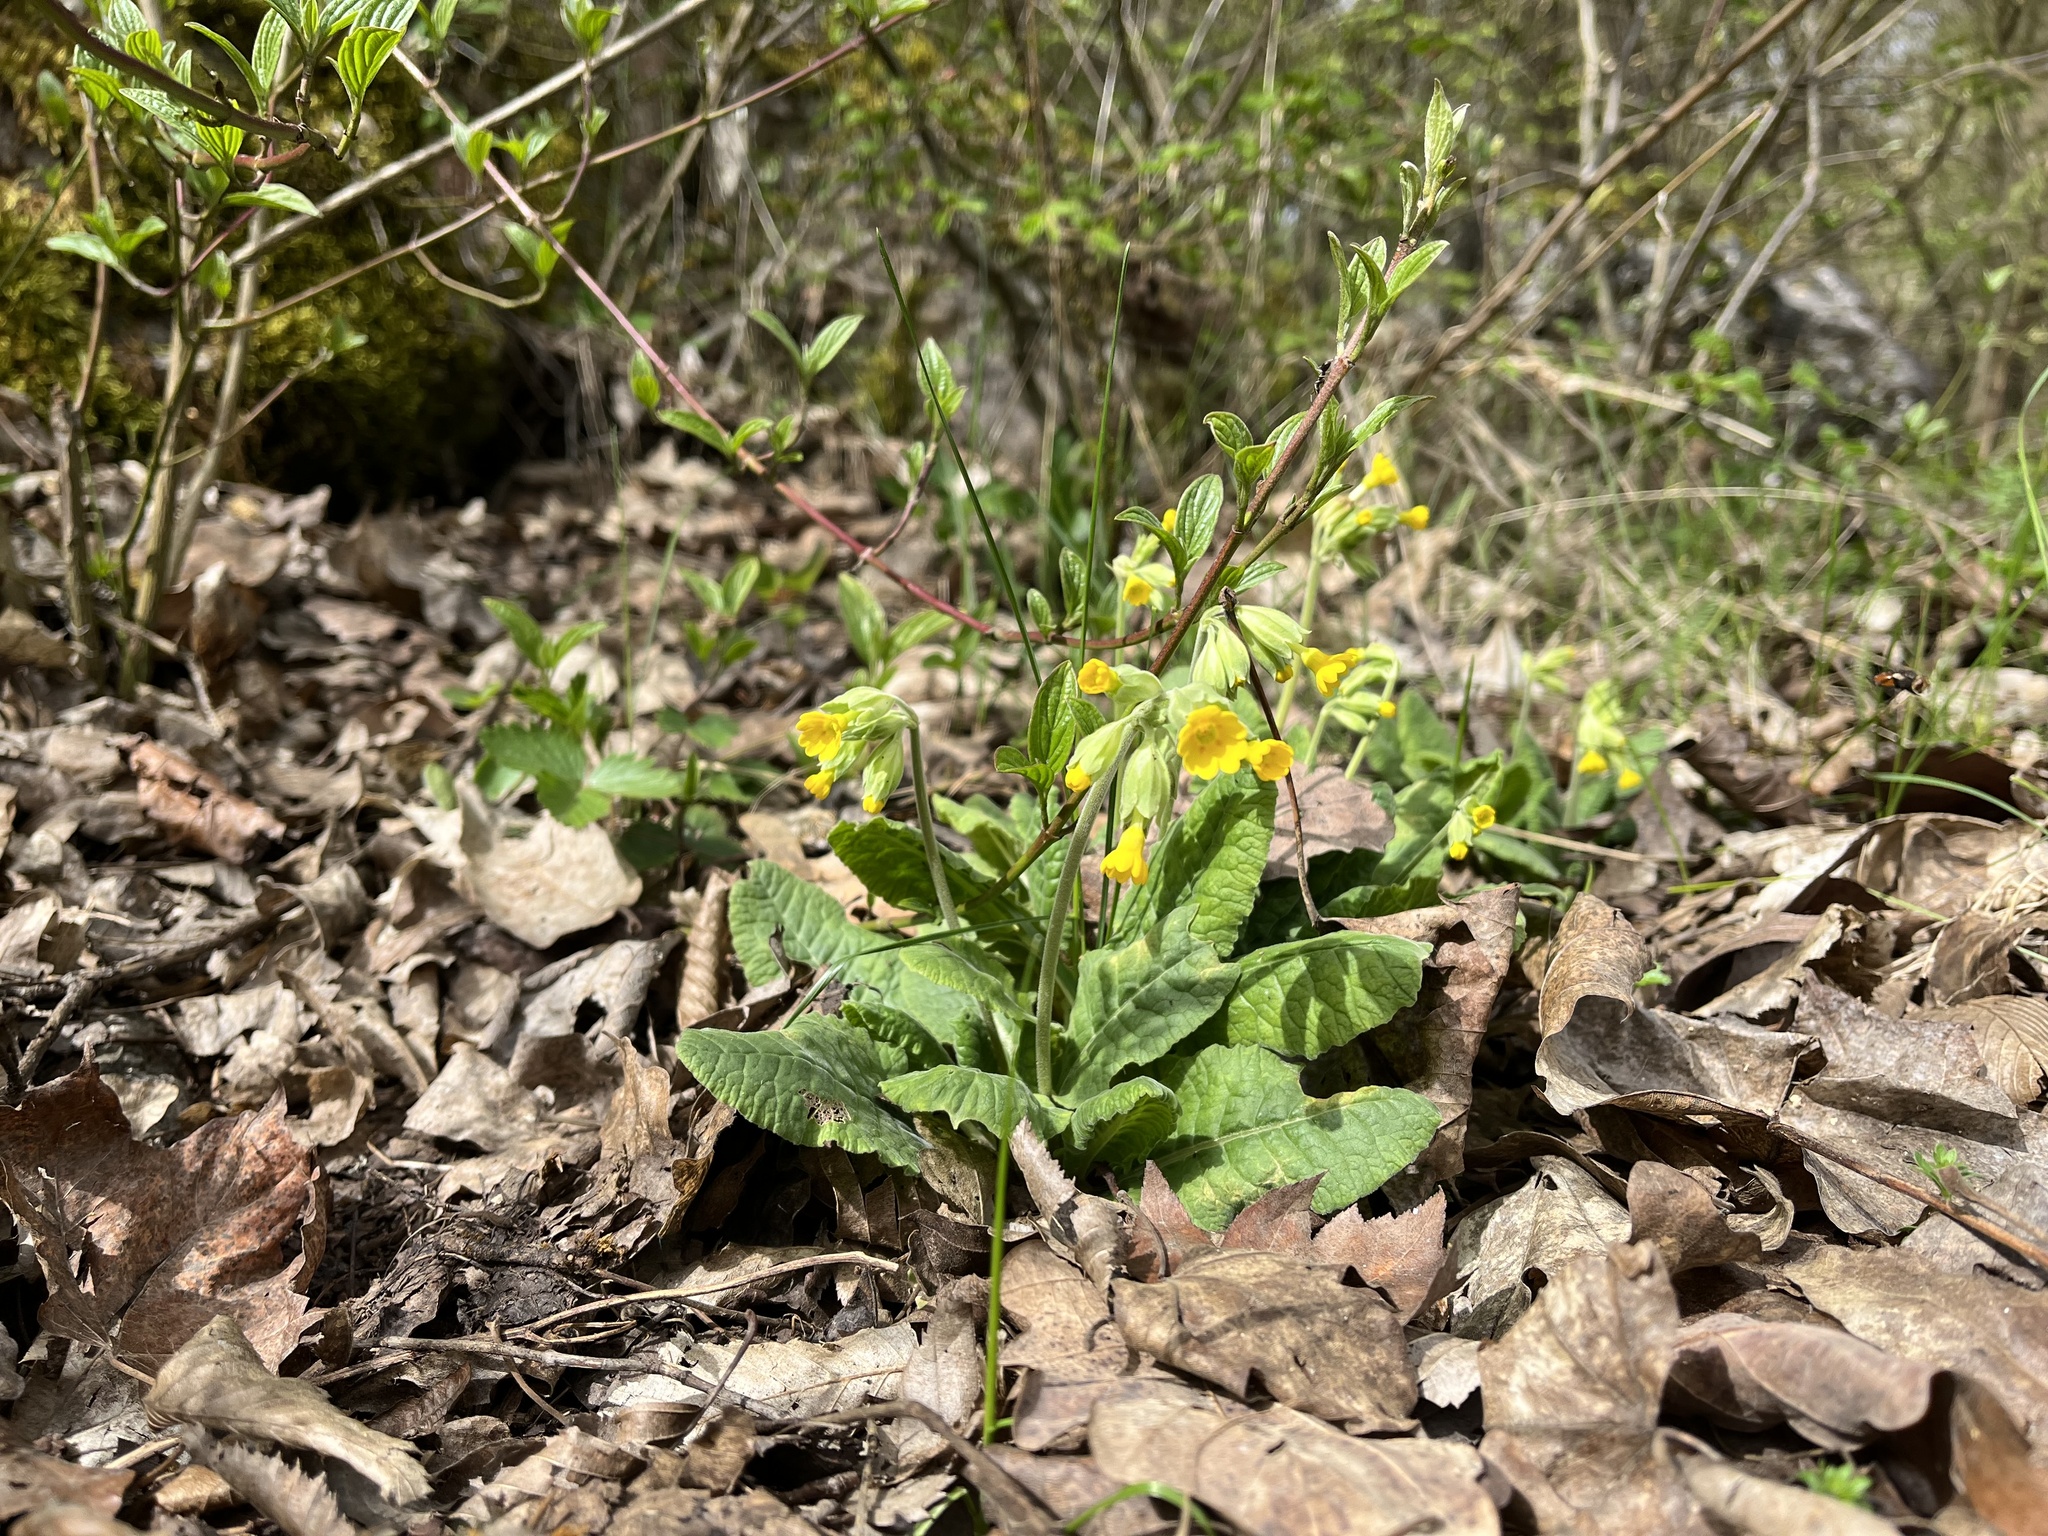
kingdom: Plantae
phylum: Tracheophyta
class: Magnoliopsida
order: Ericales
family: Primulaceae
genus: Primula
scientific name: Primula veris
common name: Cowslip
